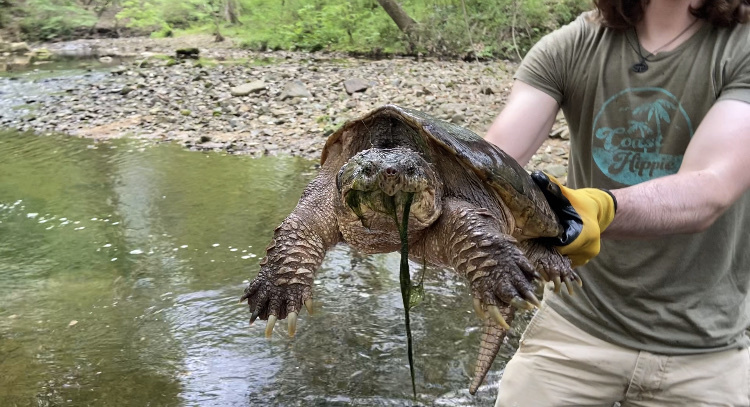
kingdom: Animalia
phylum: Chordata
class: Testudines
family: Chelydridae
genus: Chelydra
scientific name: Chelydra serpentina
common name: Common snapping turtle
